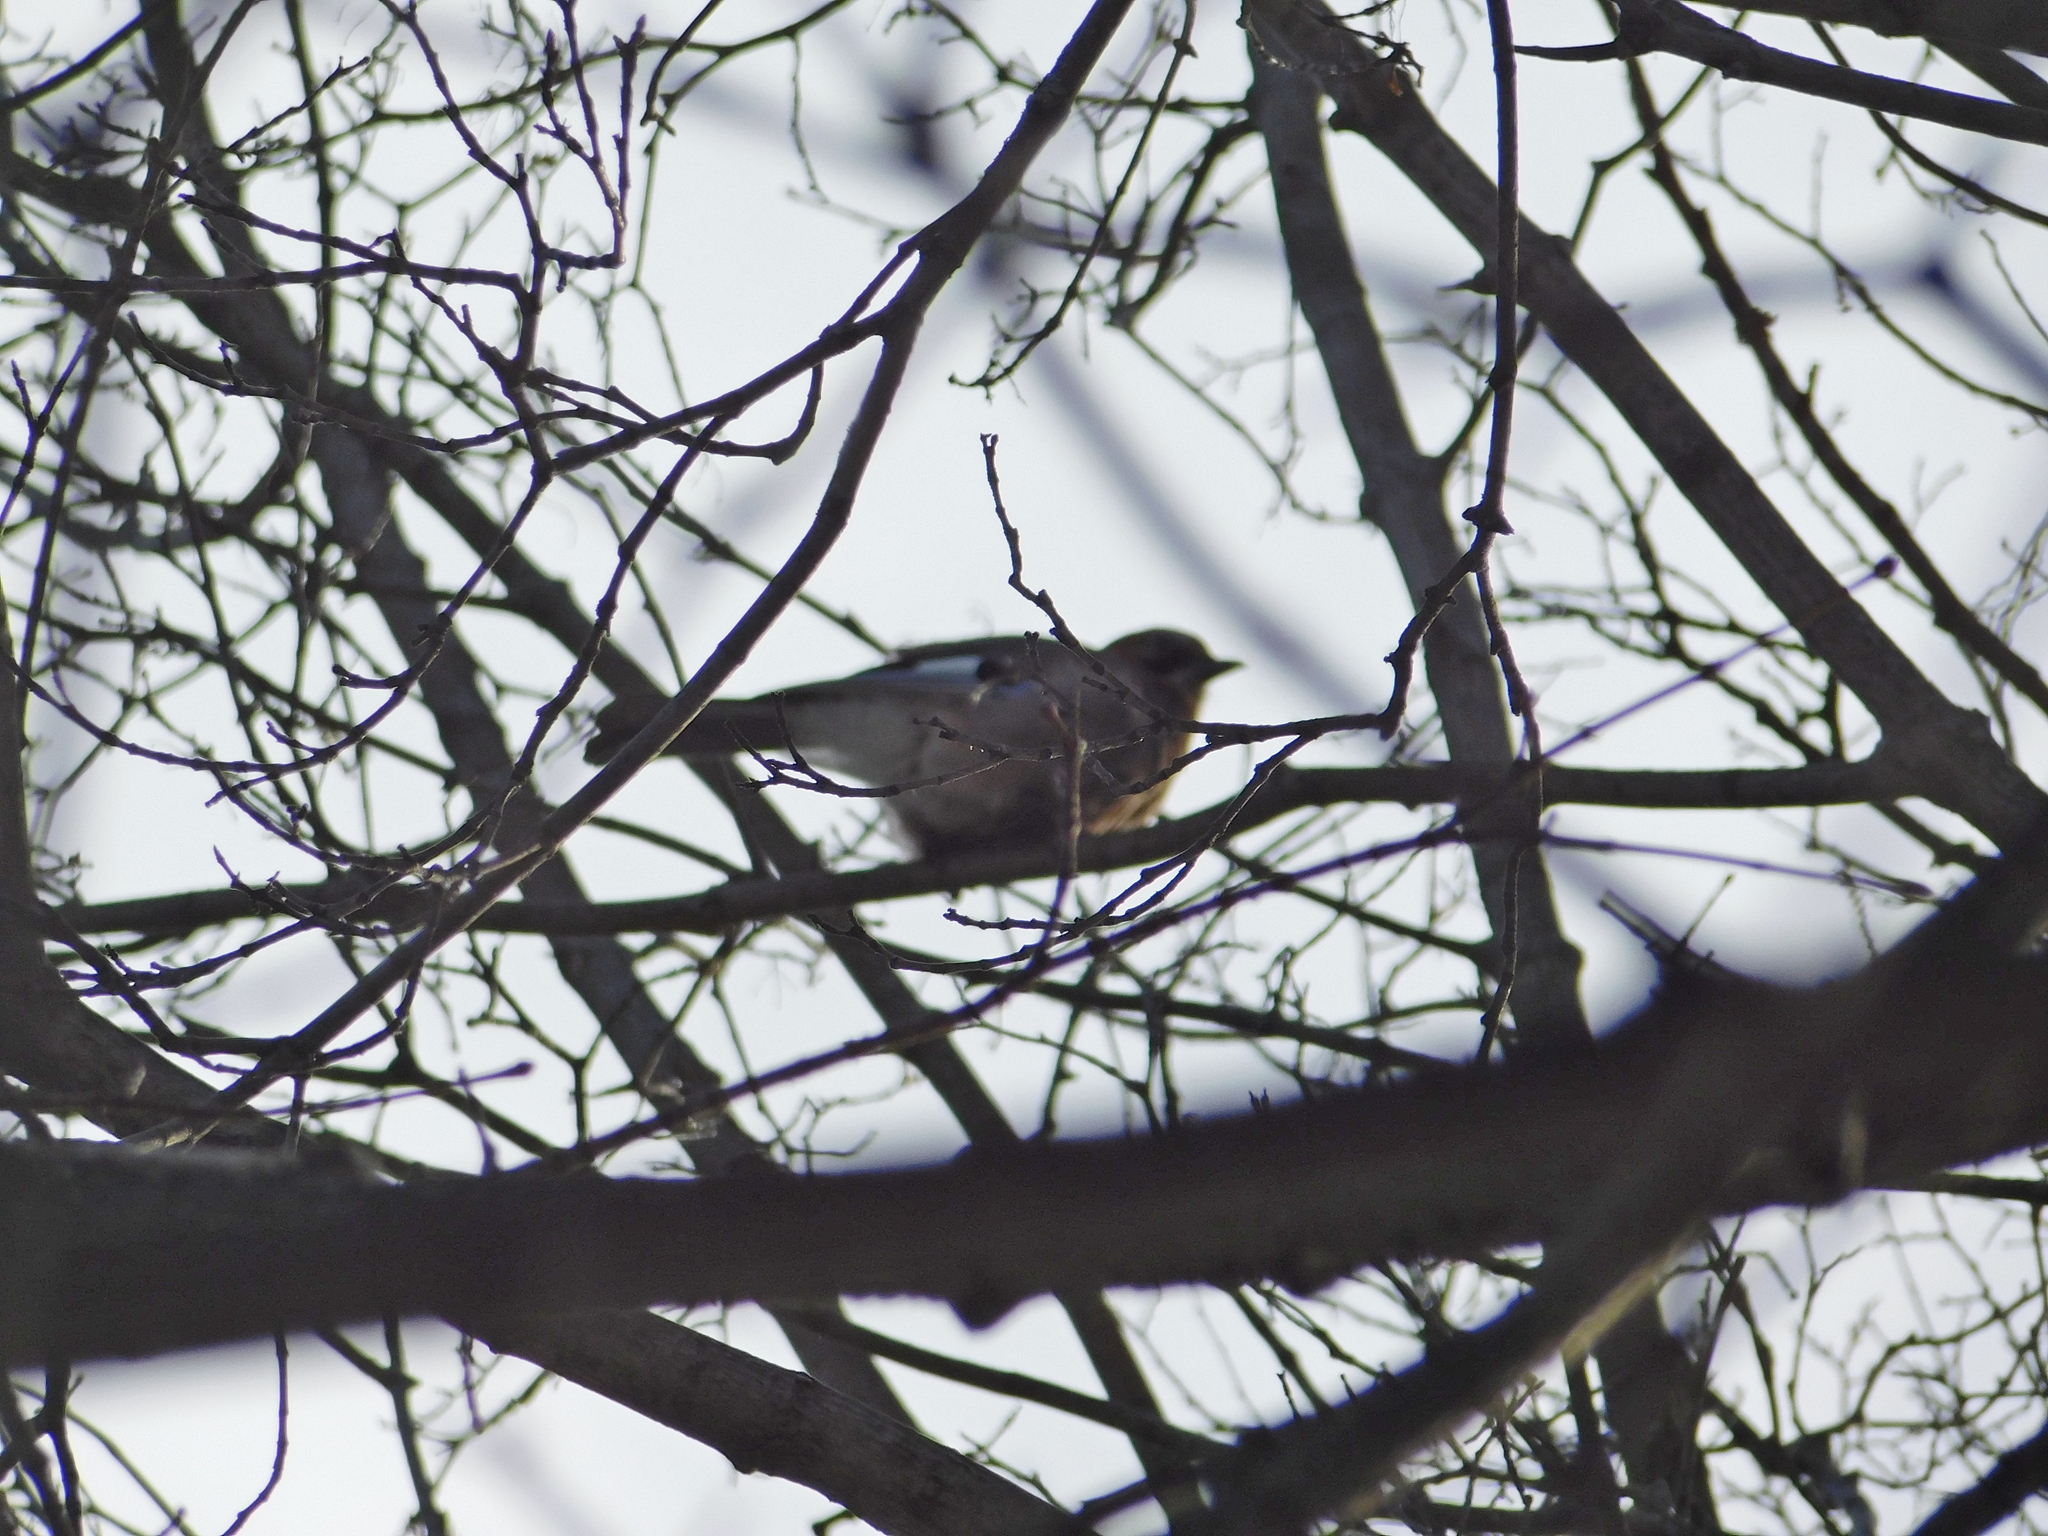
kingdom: Animalia
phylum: Chordata
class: Aves
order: Passeriformes
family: Corvidae
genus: Garrulus
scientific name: Garrulus glandarius
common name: Eurasian jay
